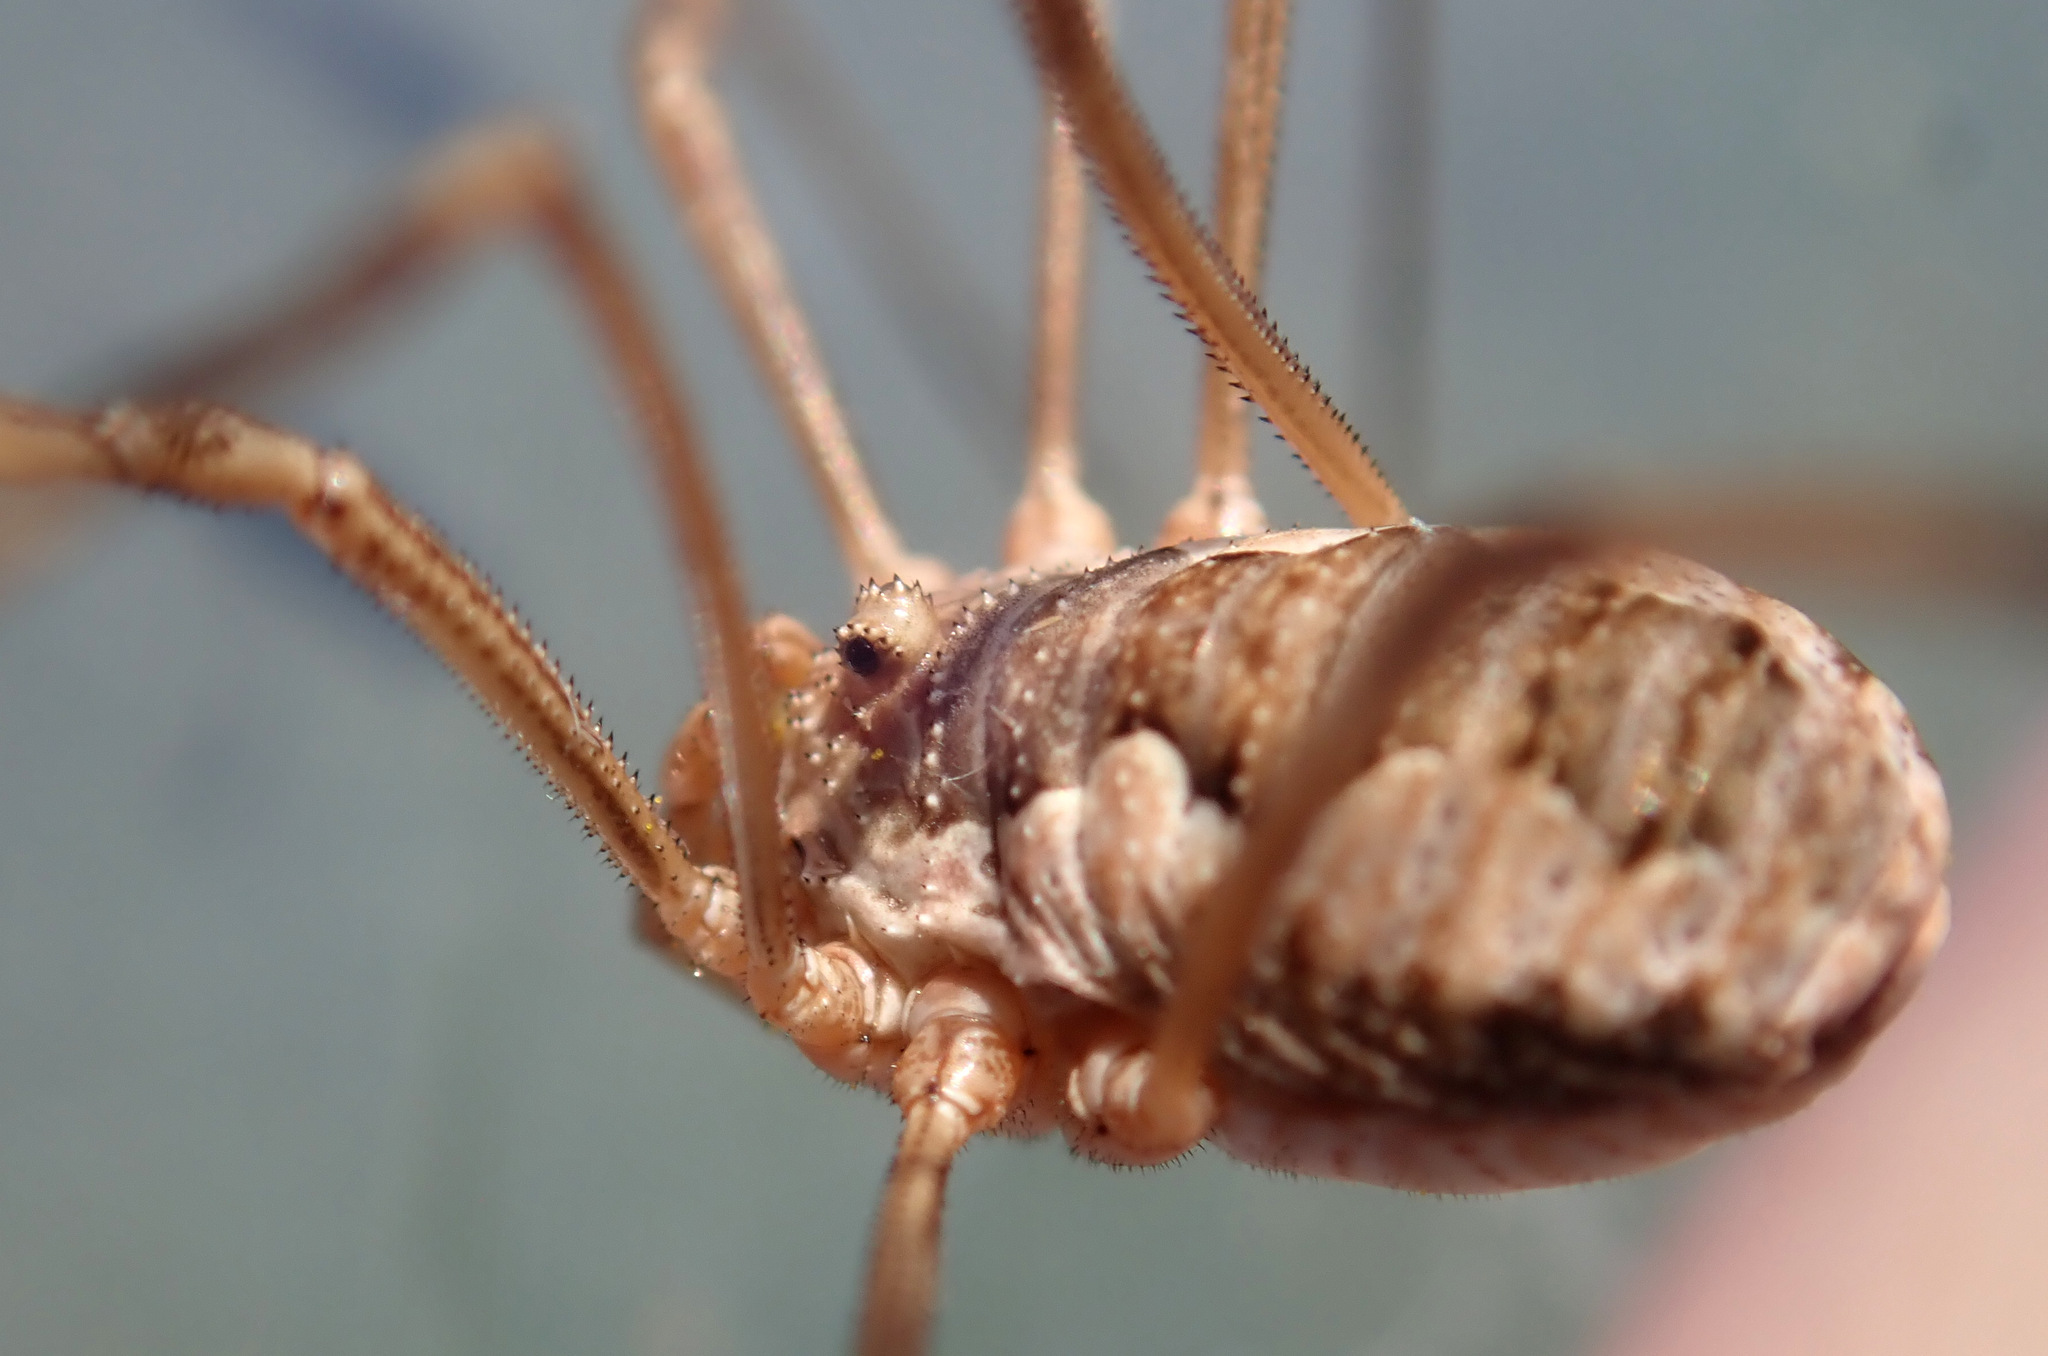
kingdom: Animalia
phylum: Arthropoda
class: Arachnida
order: Opiliones
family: Phalangiidae
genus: Phalangium
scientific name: Phalangium opilio
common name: Daddy longleg
